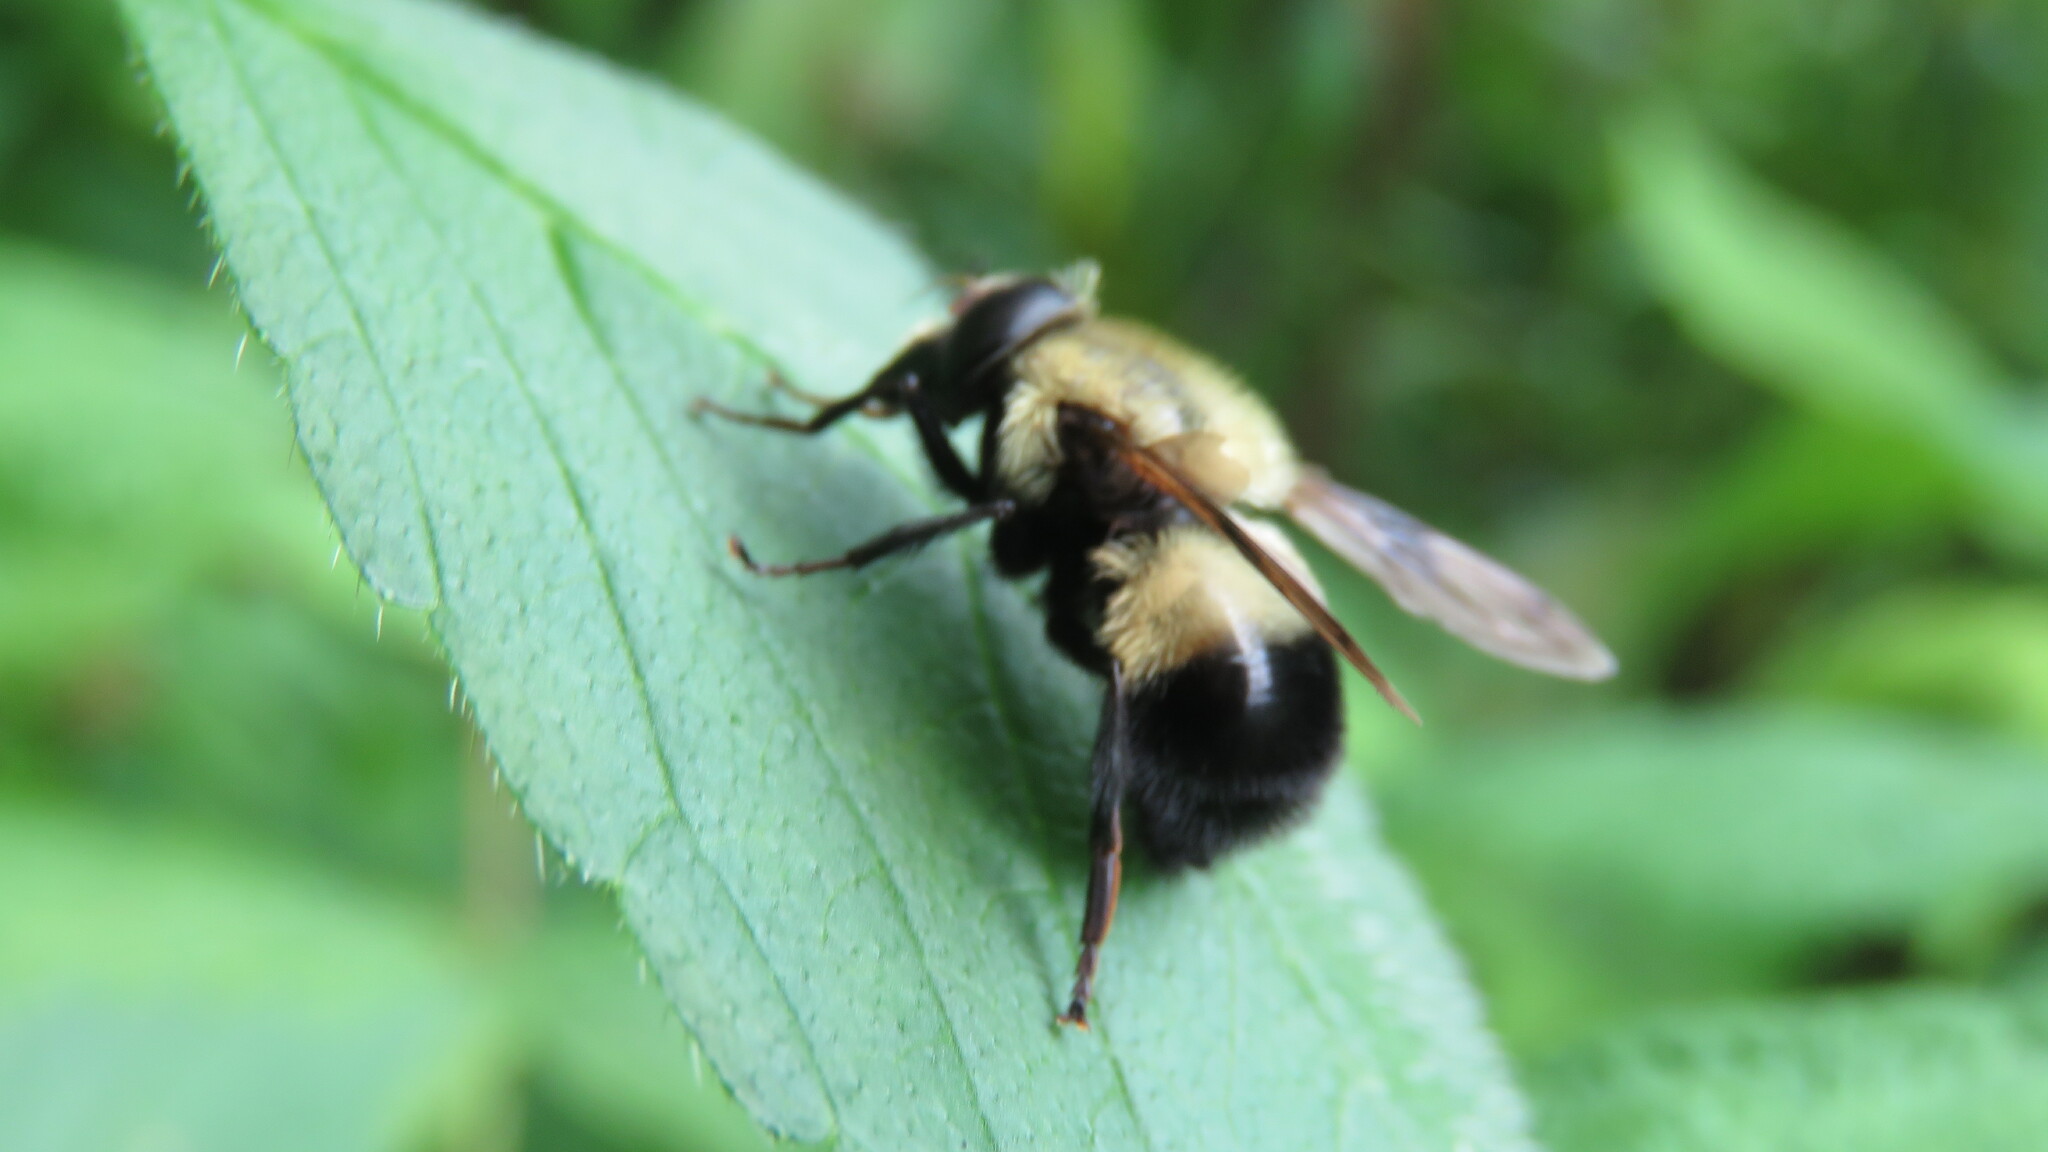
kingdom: Animalia
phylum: Arthropoda
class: Insecta
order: Diptera
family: Syrphidae
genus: Volucella
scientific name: Volucella evecta
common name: Eastern swiftwing
